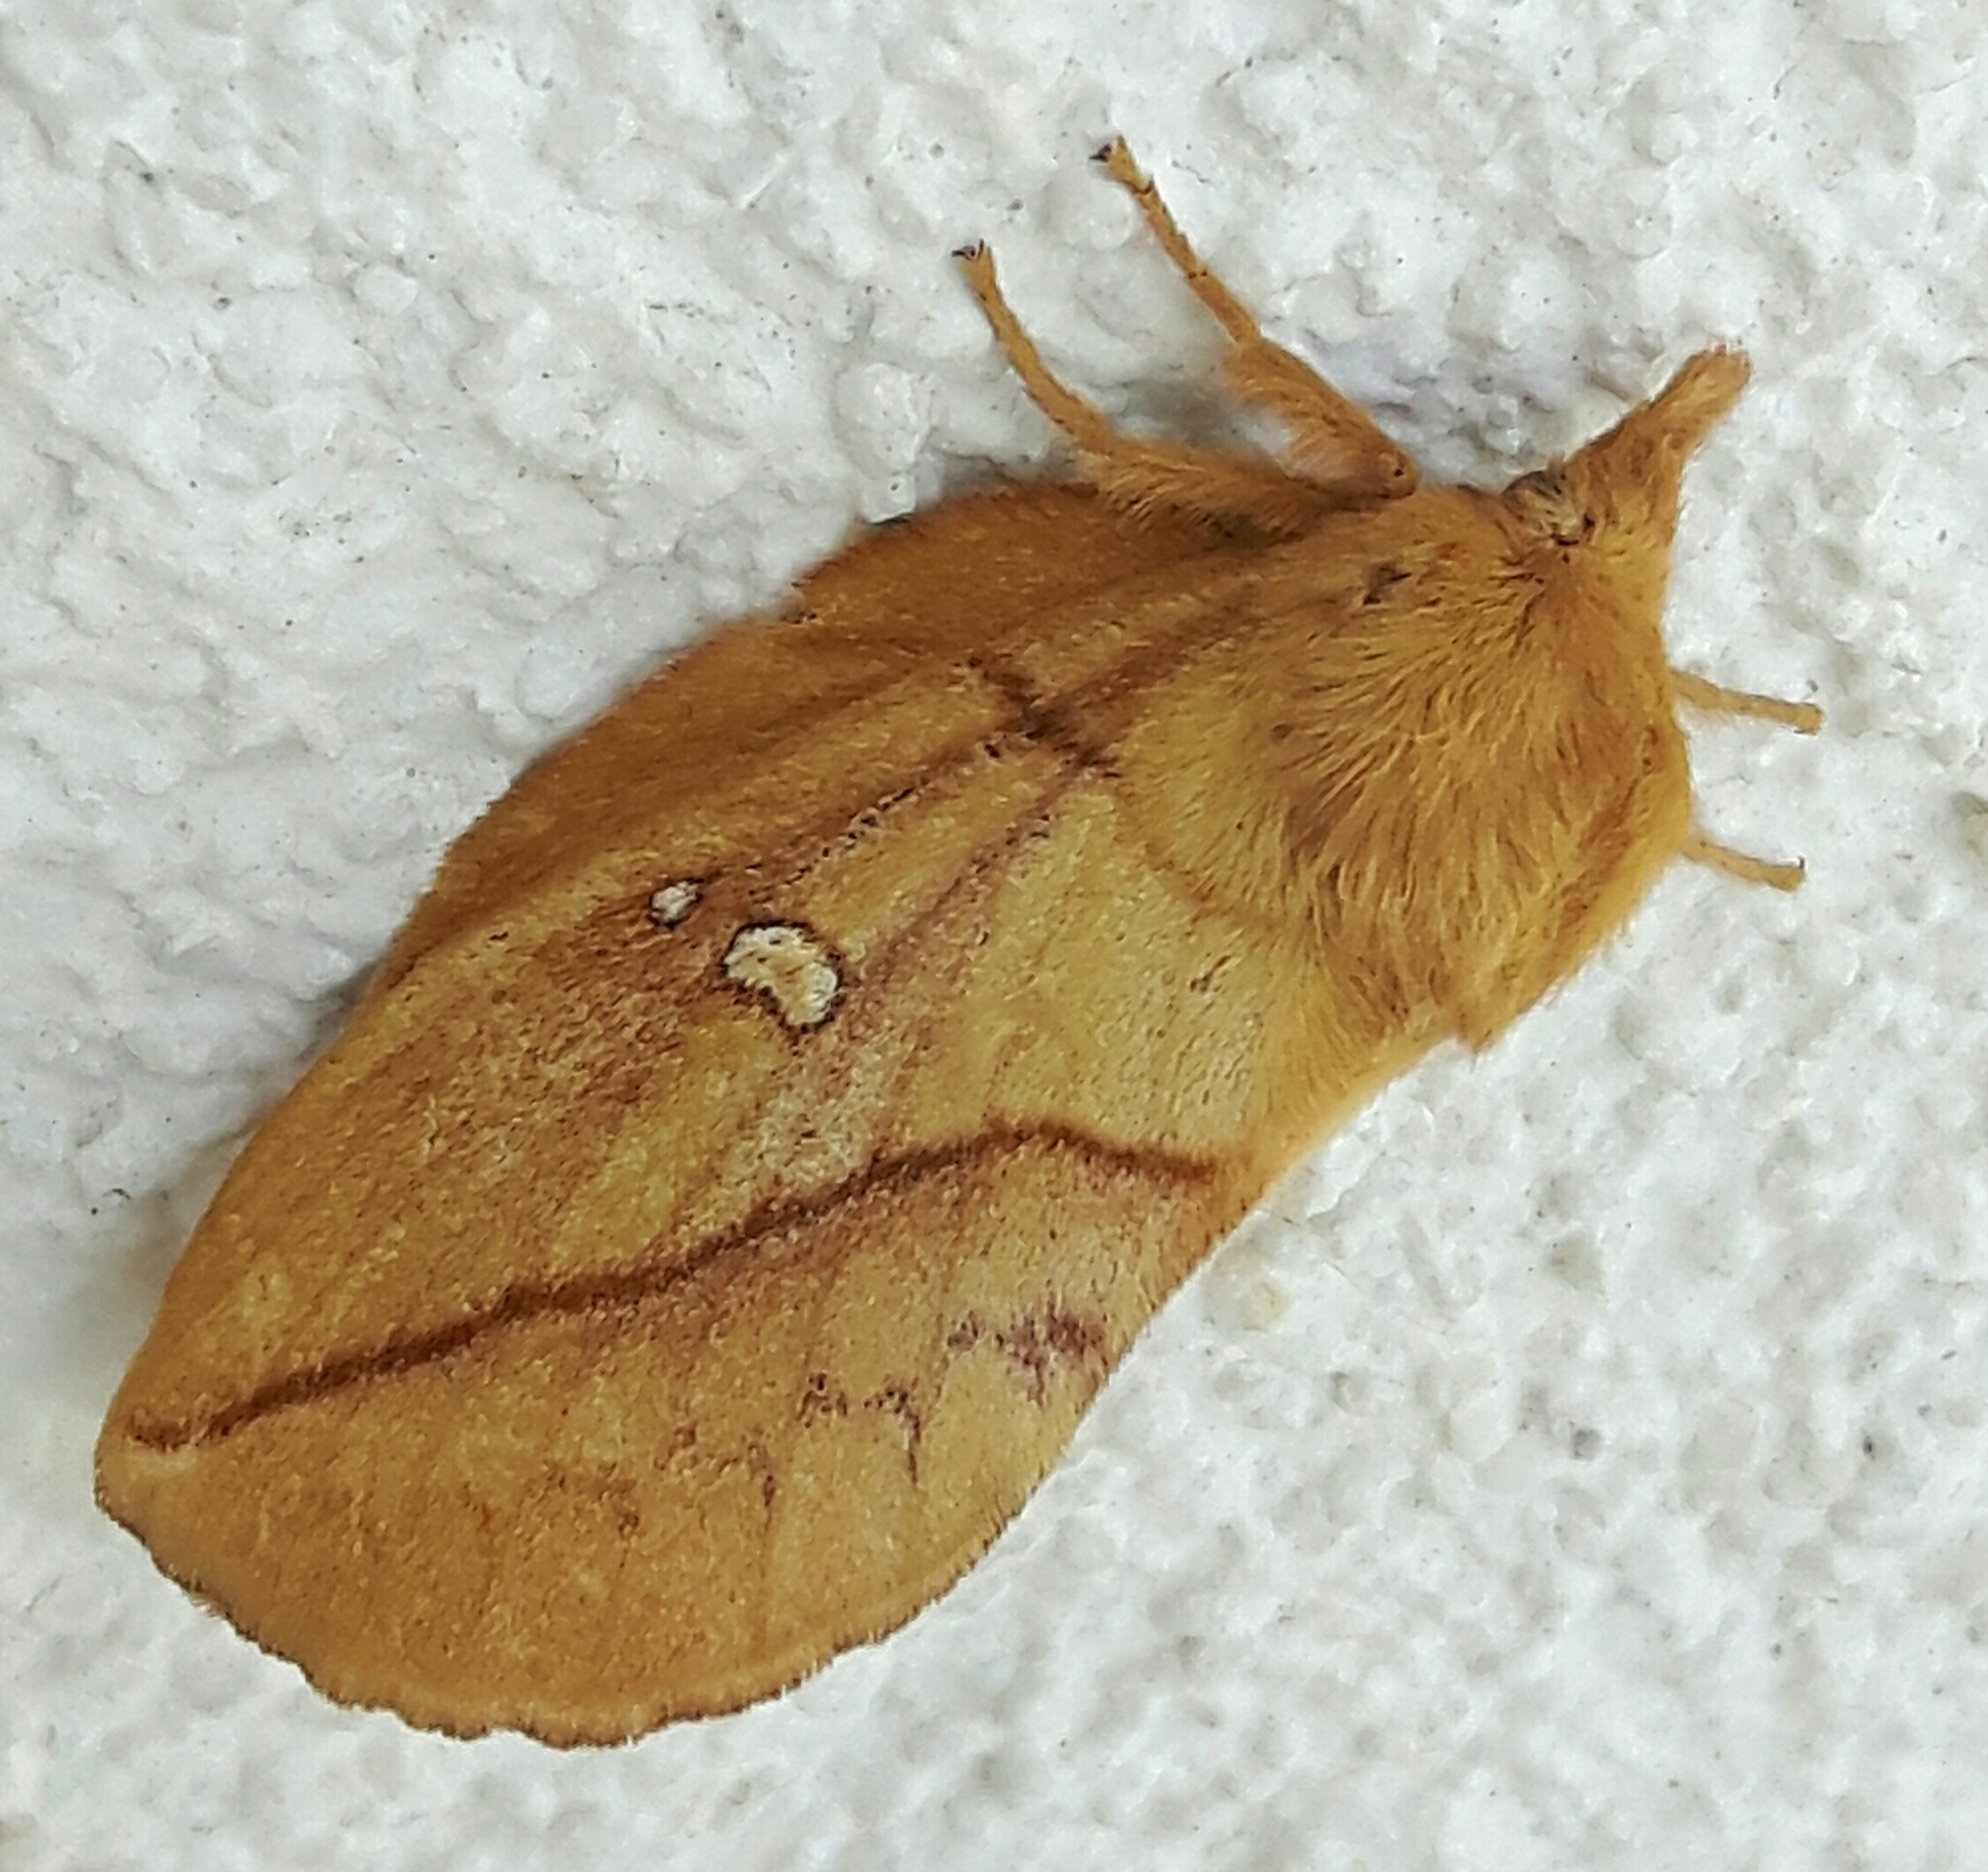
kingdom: Animalia
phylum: Arthropoda
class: Insecta
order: Lepidoptera
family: Lasiocampidae
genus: Euthrix
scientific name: Euthrix potatoria
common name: Drinker
